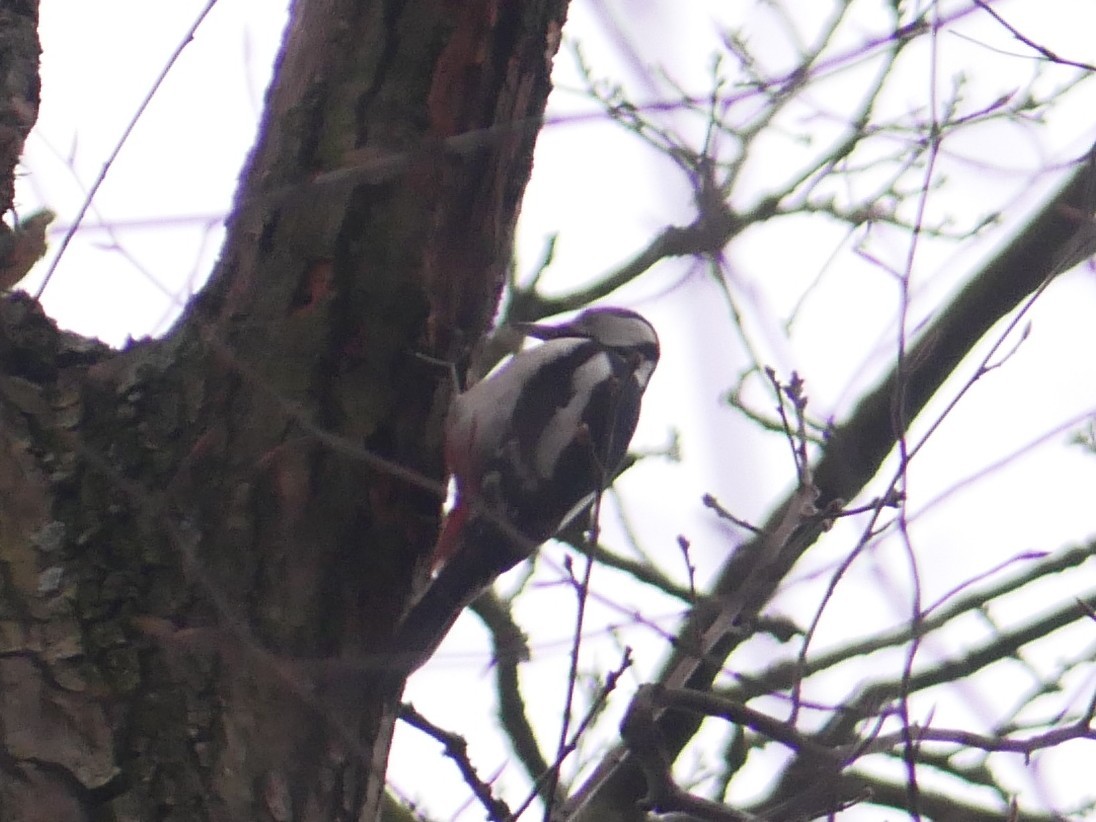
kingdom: Animalia
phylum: Chordata
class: Aves
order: Piciformes
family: Picidae
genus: Dendrocopos
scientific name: Dendrocopos major
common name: Great spotted woodpecker
